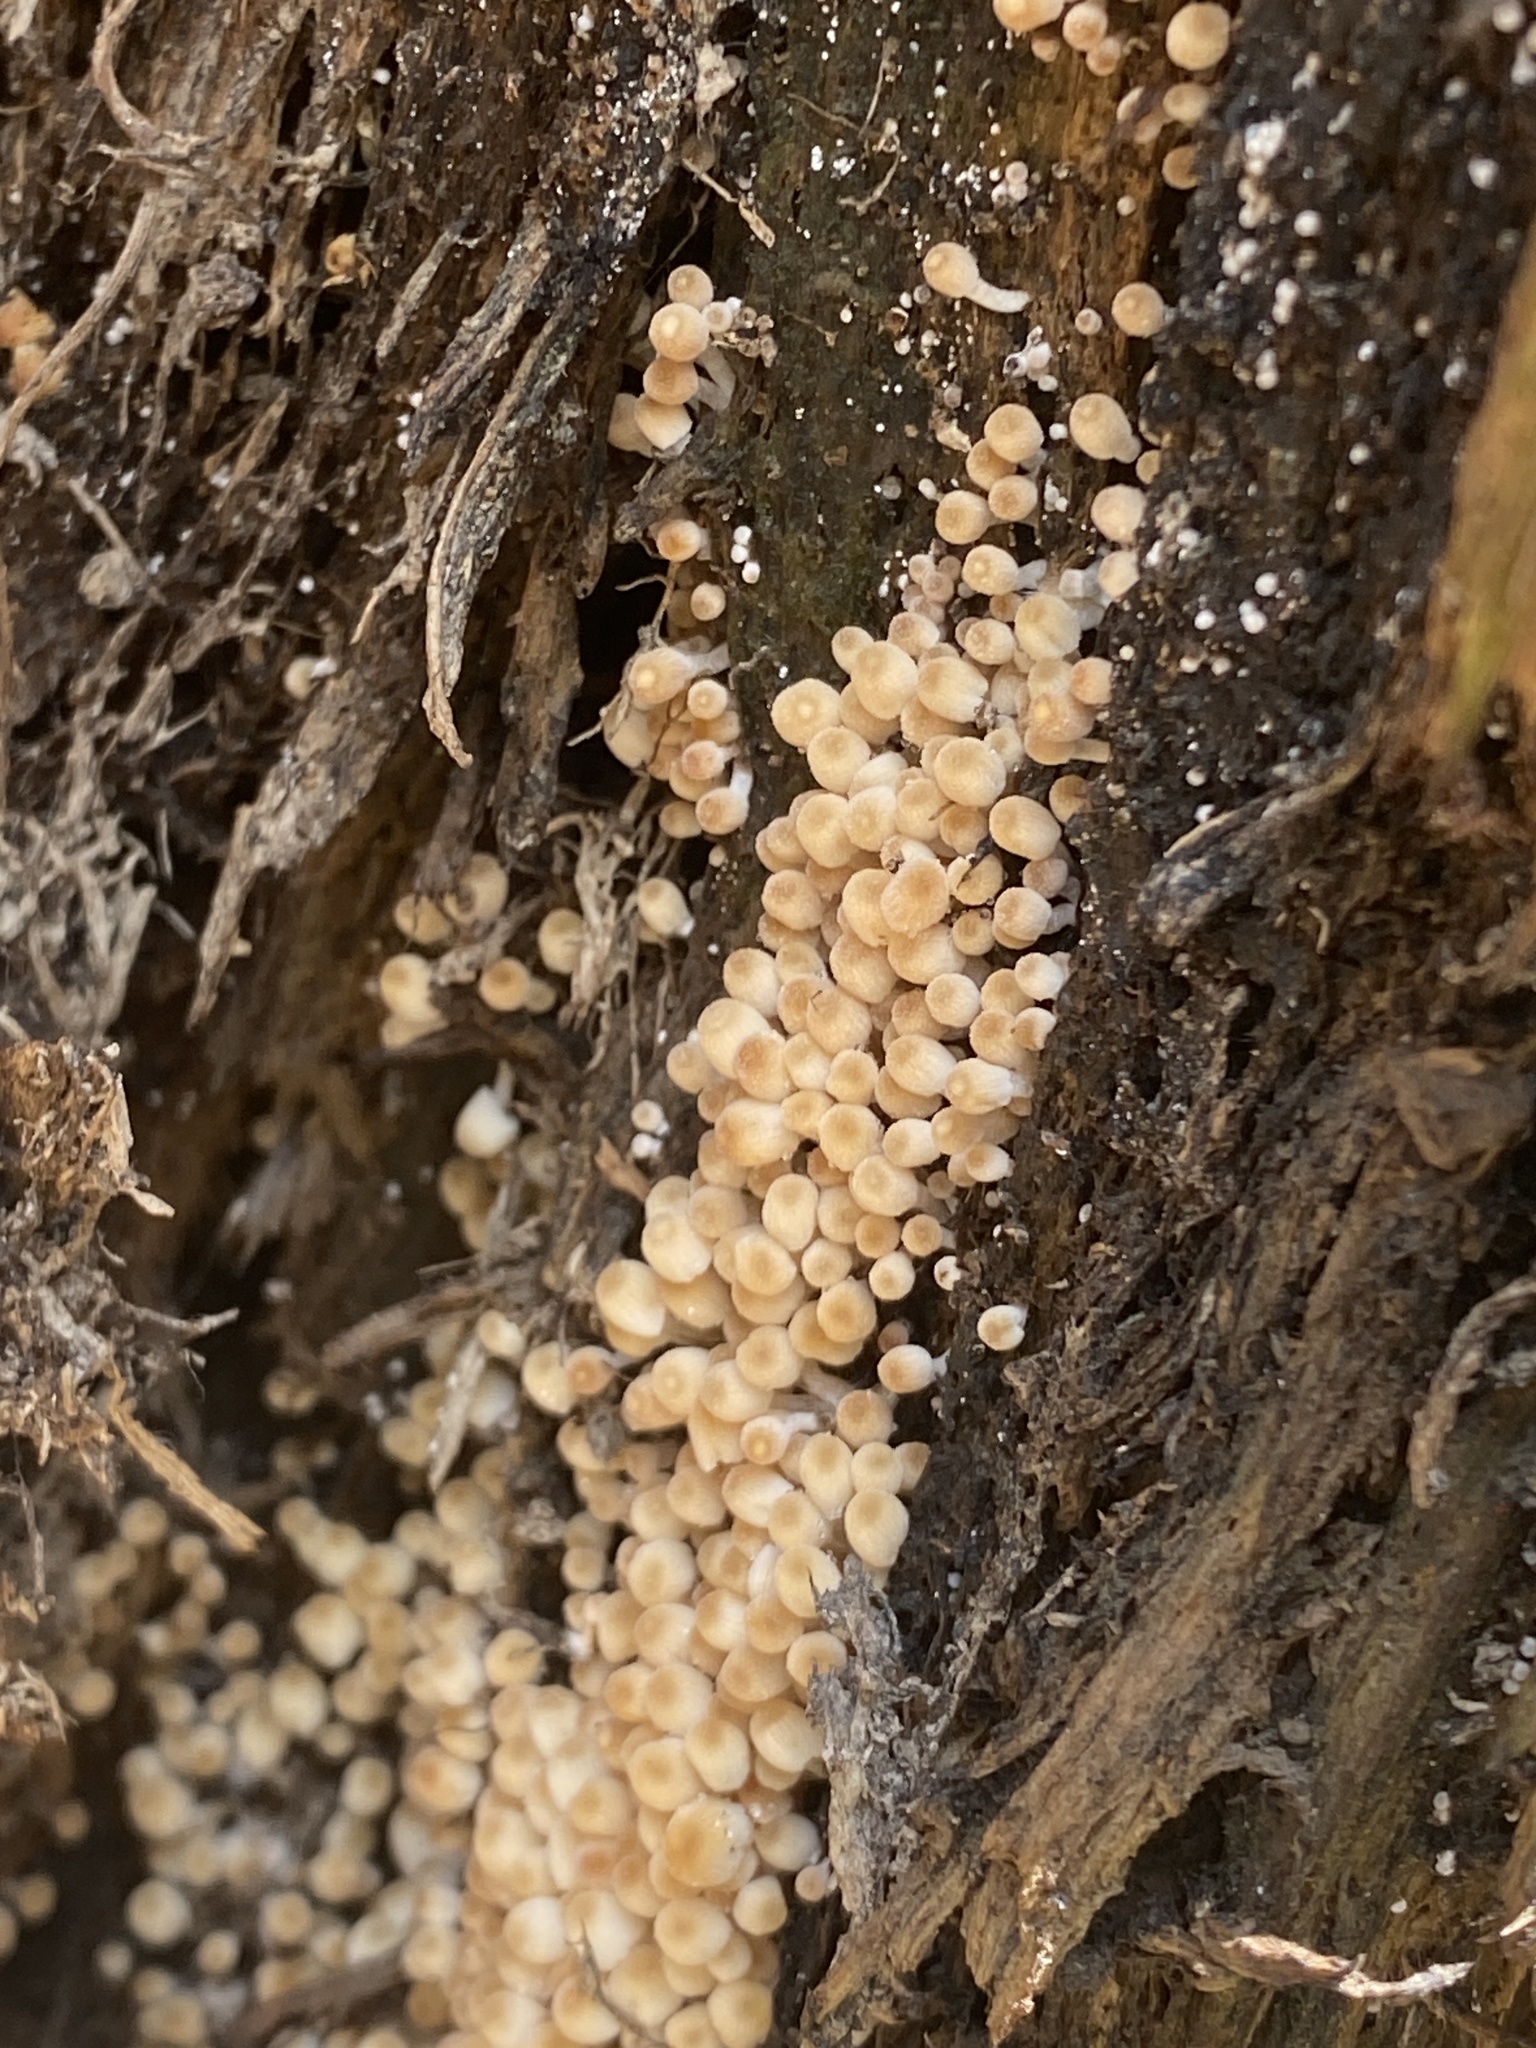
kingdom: Fungi
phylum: Basidiomycota
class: Agaricomycetes
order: Agaricales
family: Psathyrellaceae
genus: Coprinellus
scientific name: Coprinellus disseminatus
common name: Fairies' bonnets
